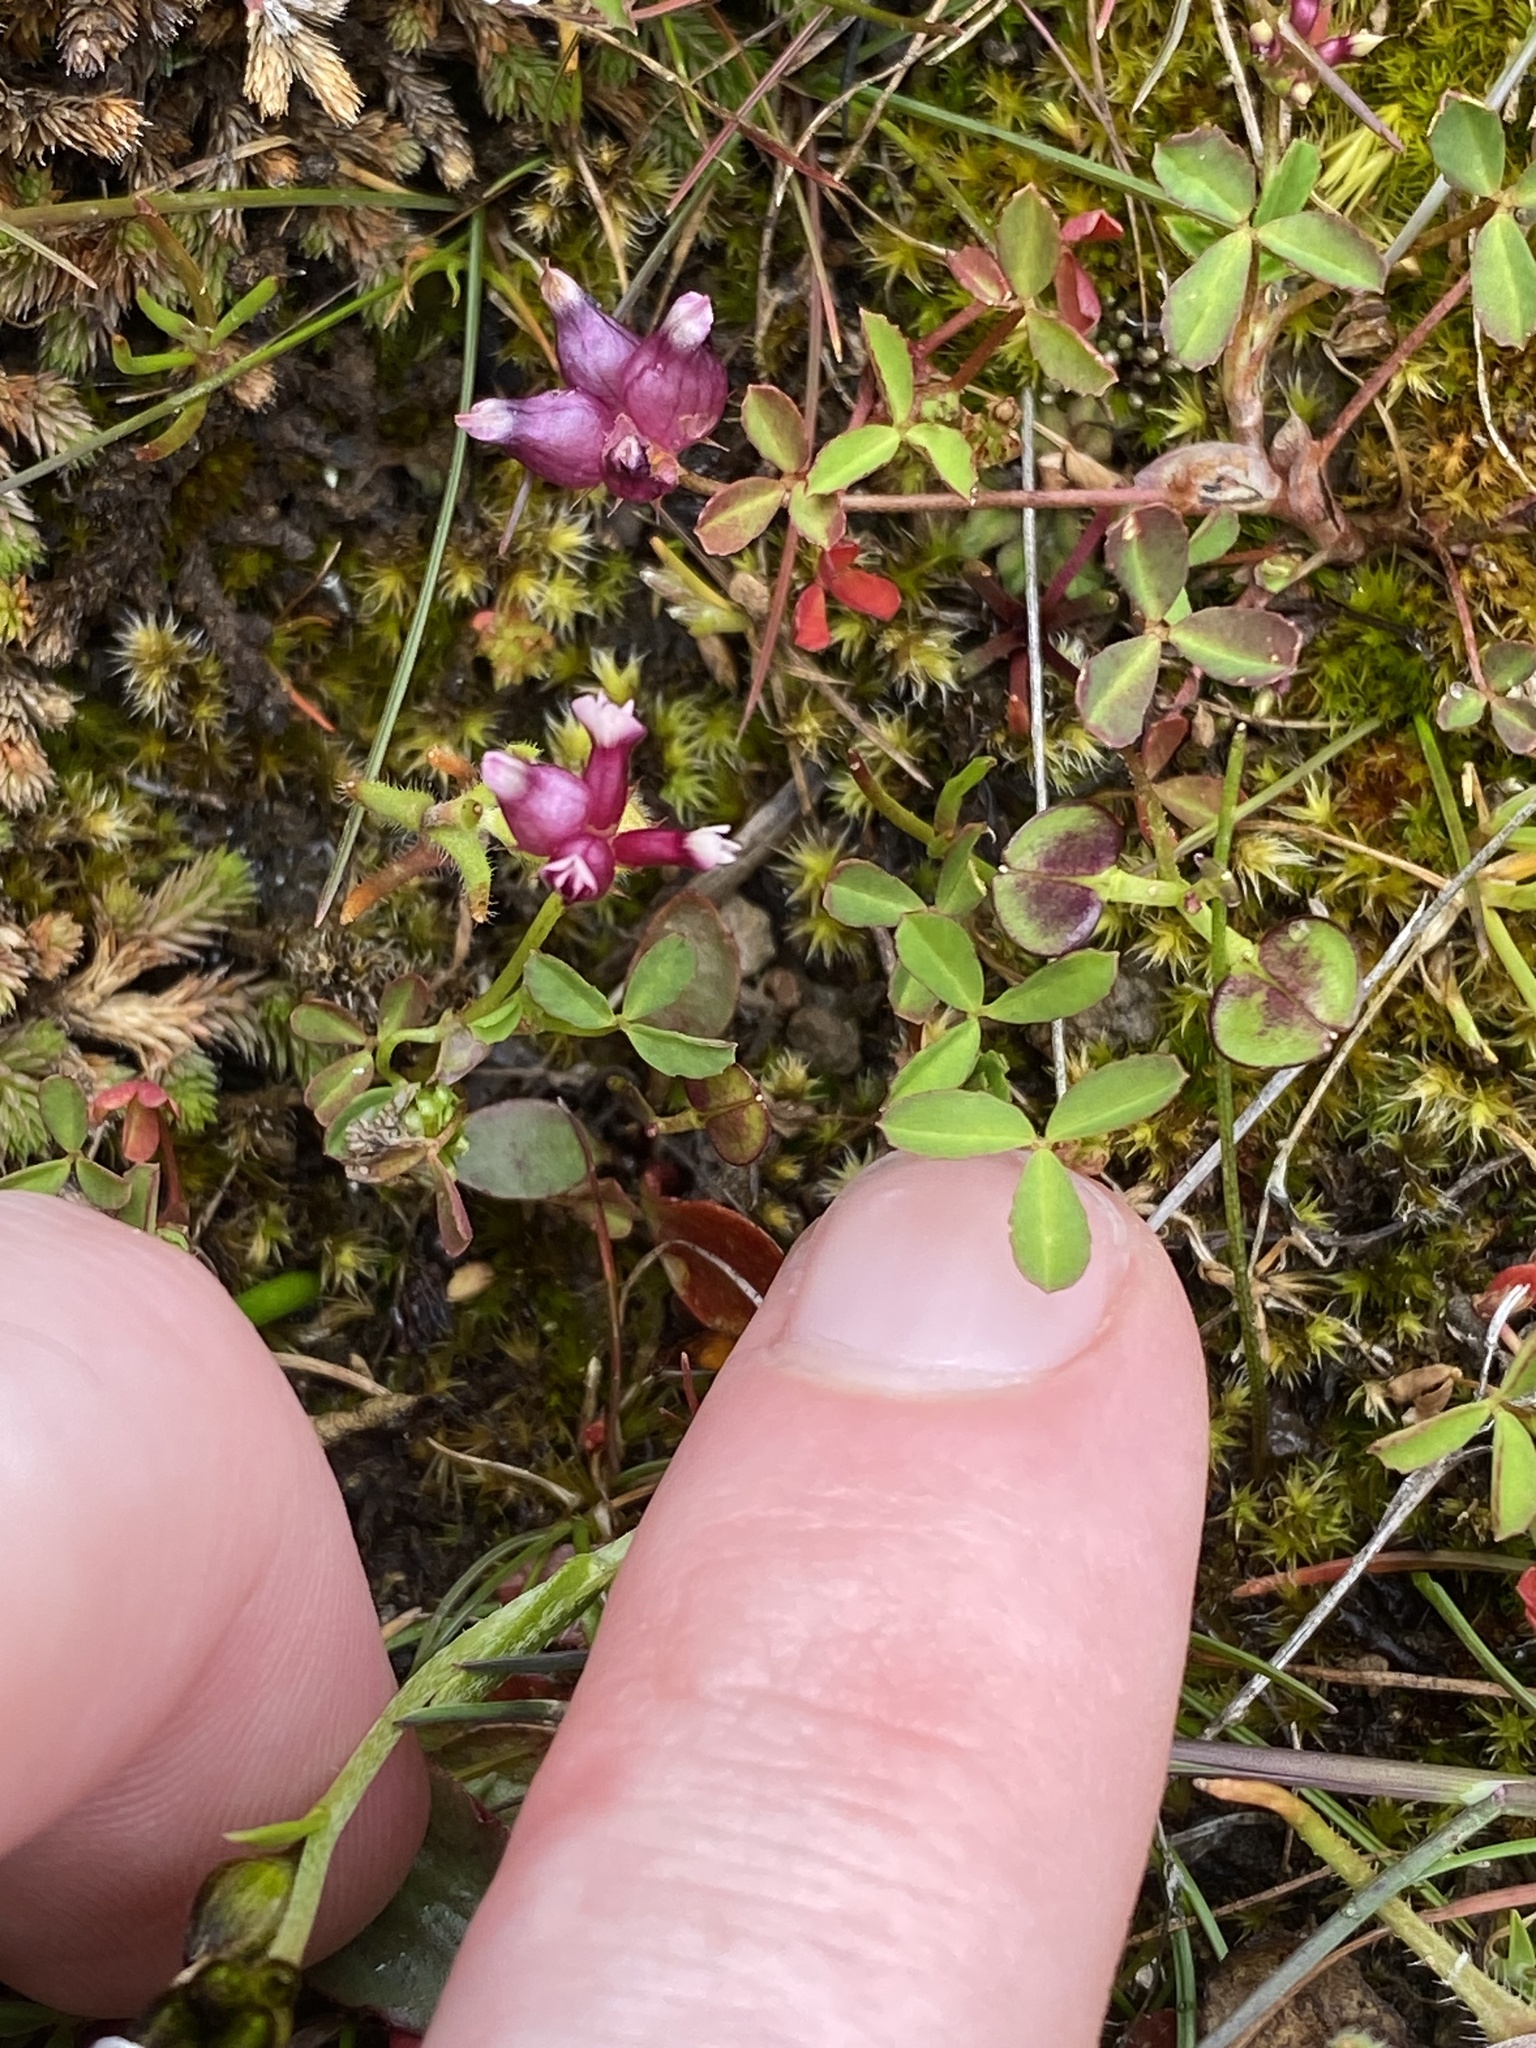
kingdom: Plantae
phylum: Tracheophyta
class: Magnoliopsida
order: Fabales
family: Fabaceae
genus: Trifolium
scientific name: Trifolium depauperatum
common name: Poverty clover
